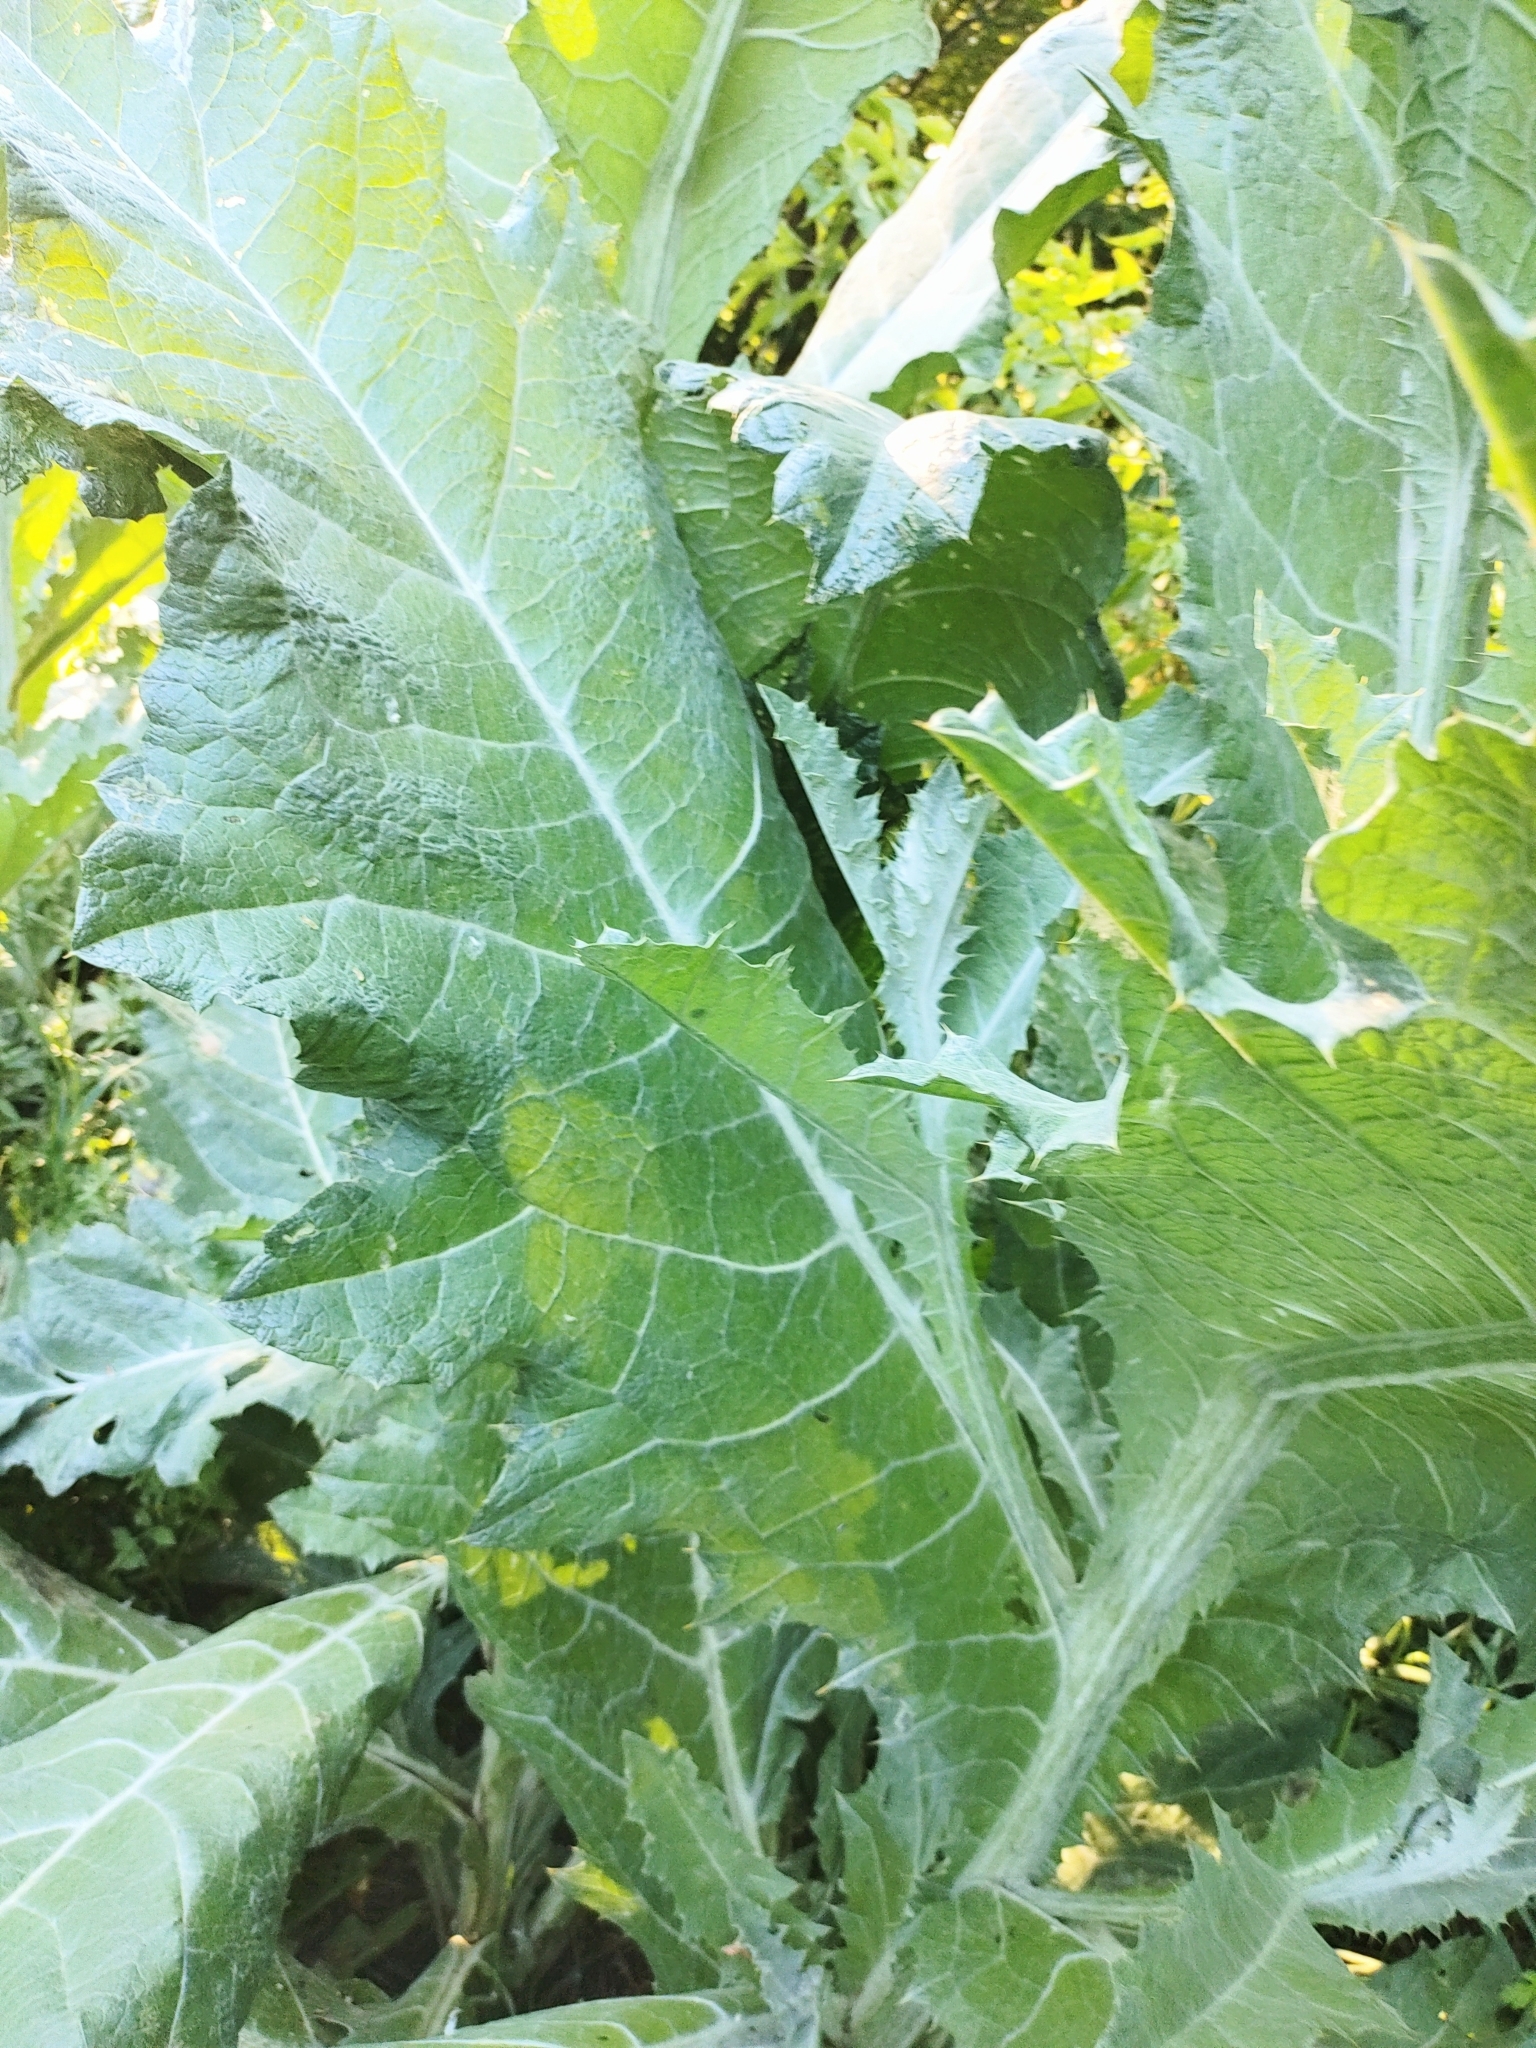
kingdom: Plantae
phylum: Tracheophyta
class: Magnoliopsida
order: Asterales
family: Asteraceae
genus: Onopordum
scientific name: Onopordum acanthium
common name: Scotch thistle
